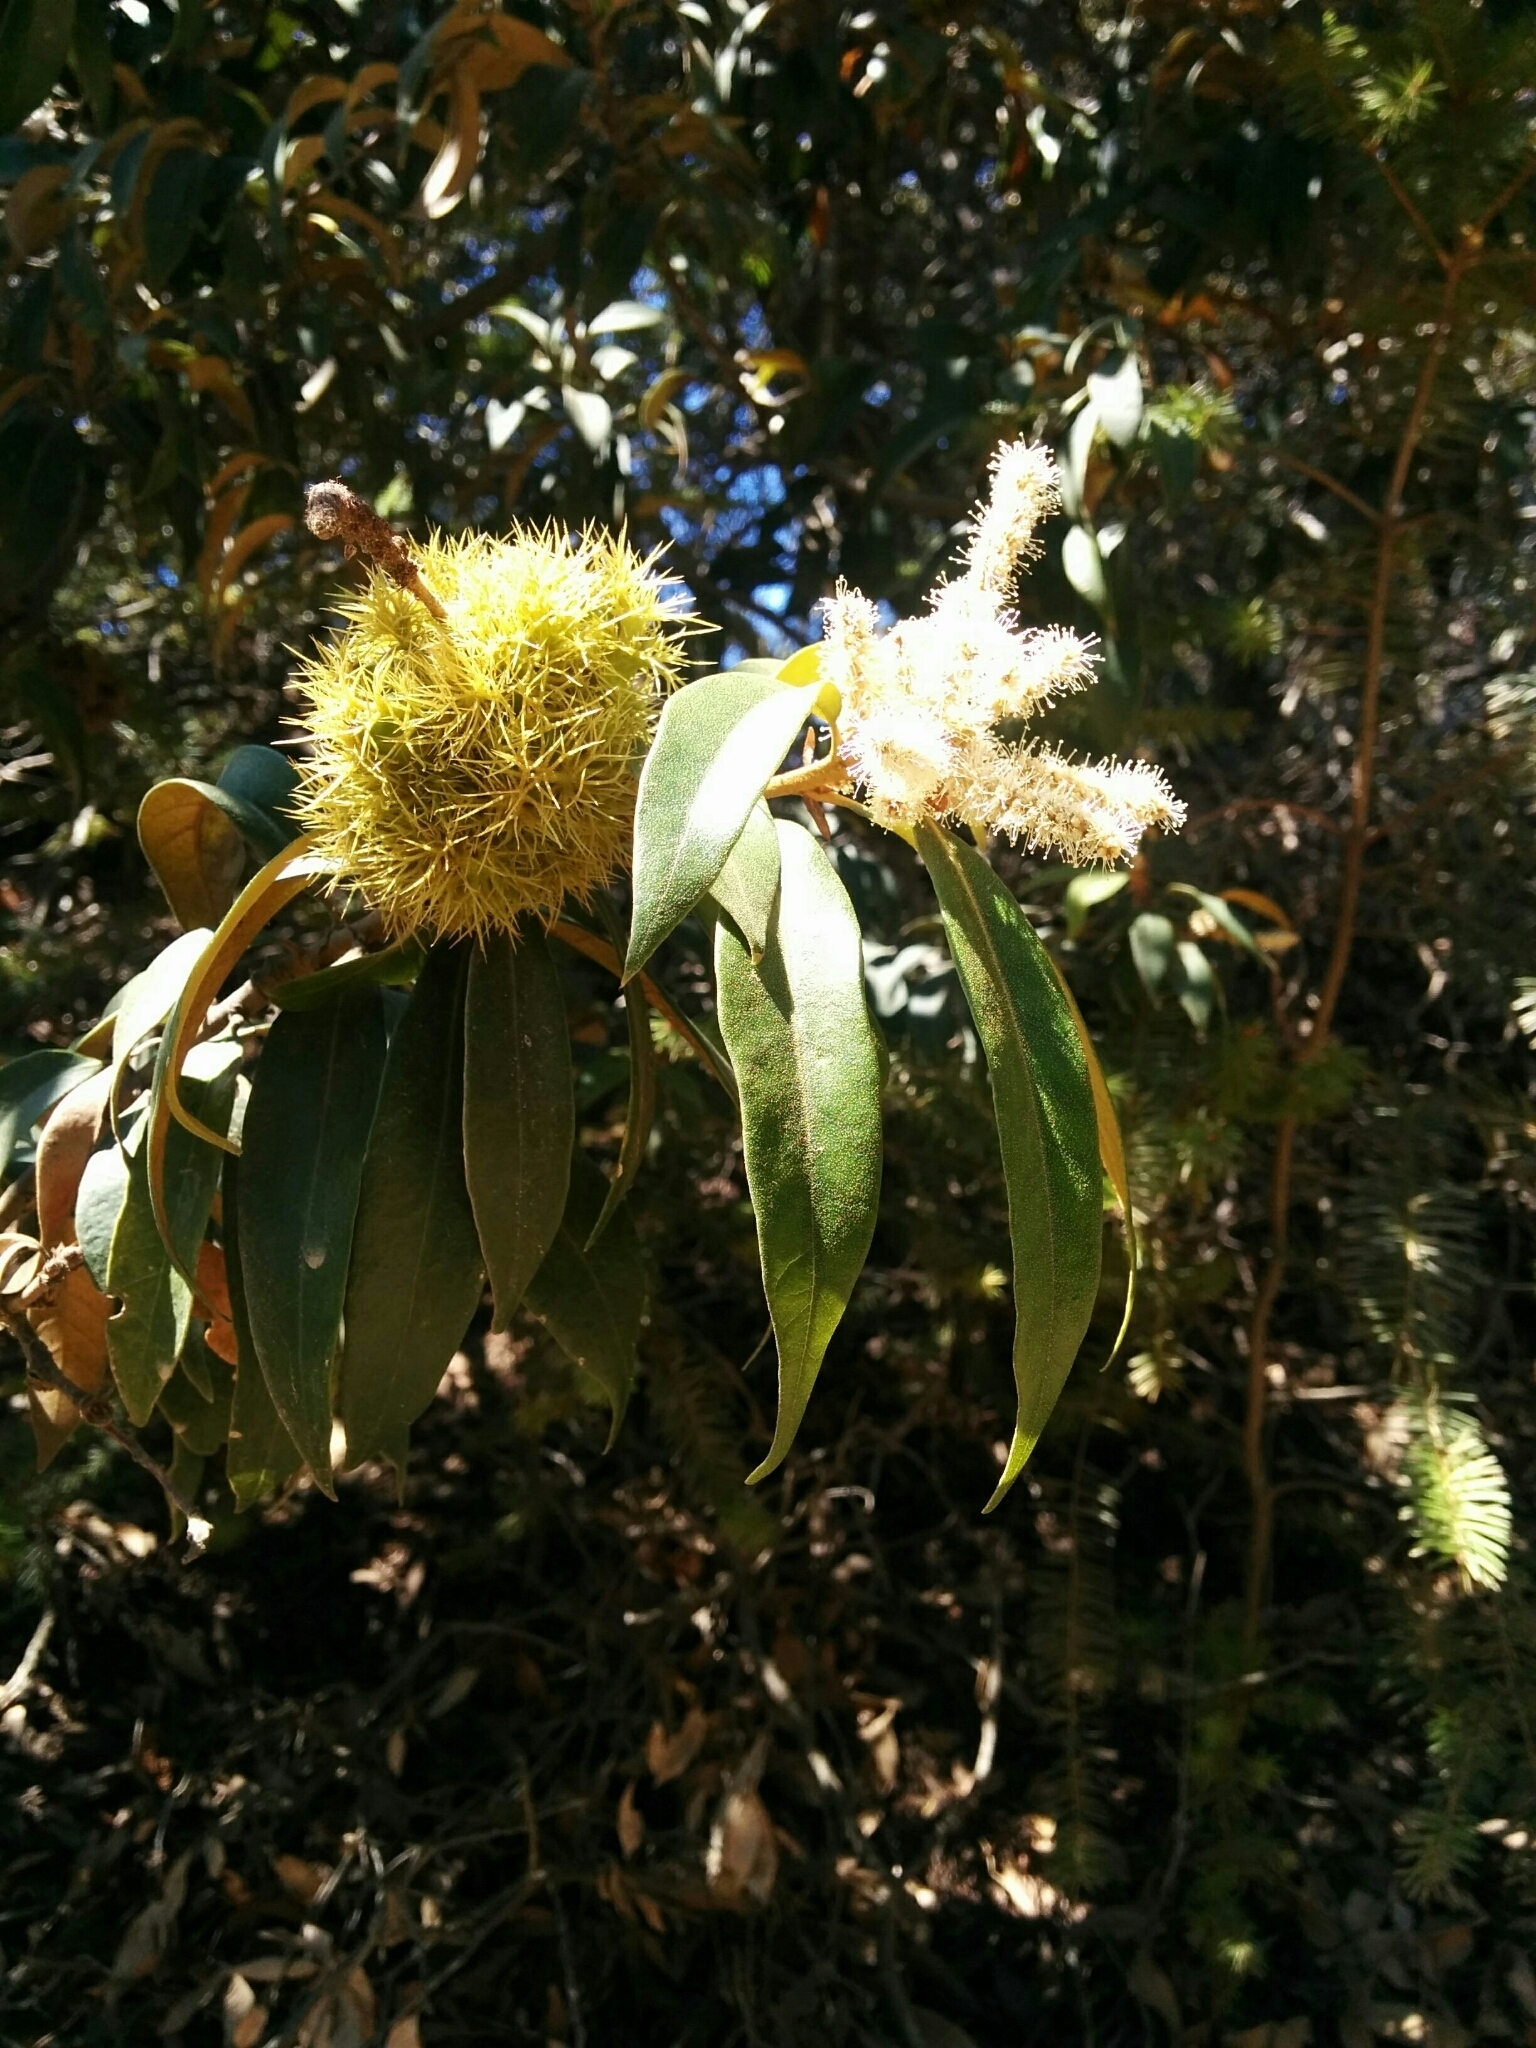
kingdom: Plantae
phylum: Tracheophyta
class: Magnoliopsida
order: Fagales
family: Fagaceae
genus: Chrysolepis
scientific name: Chrysolepis chrysophylla
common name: Giant chinquapin
